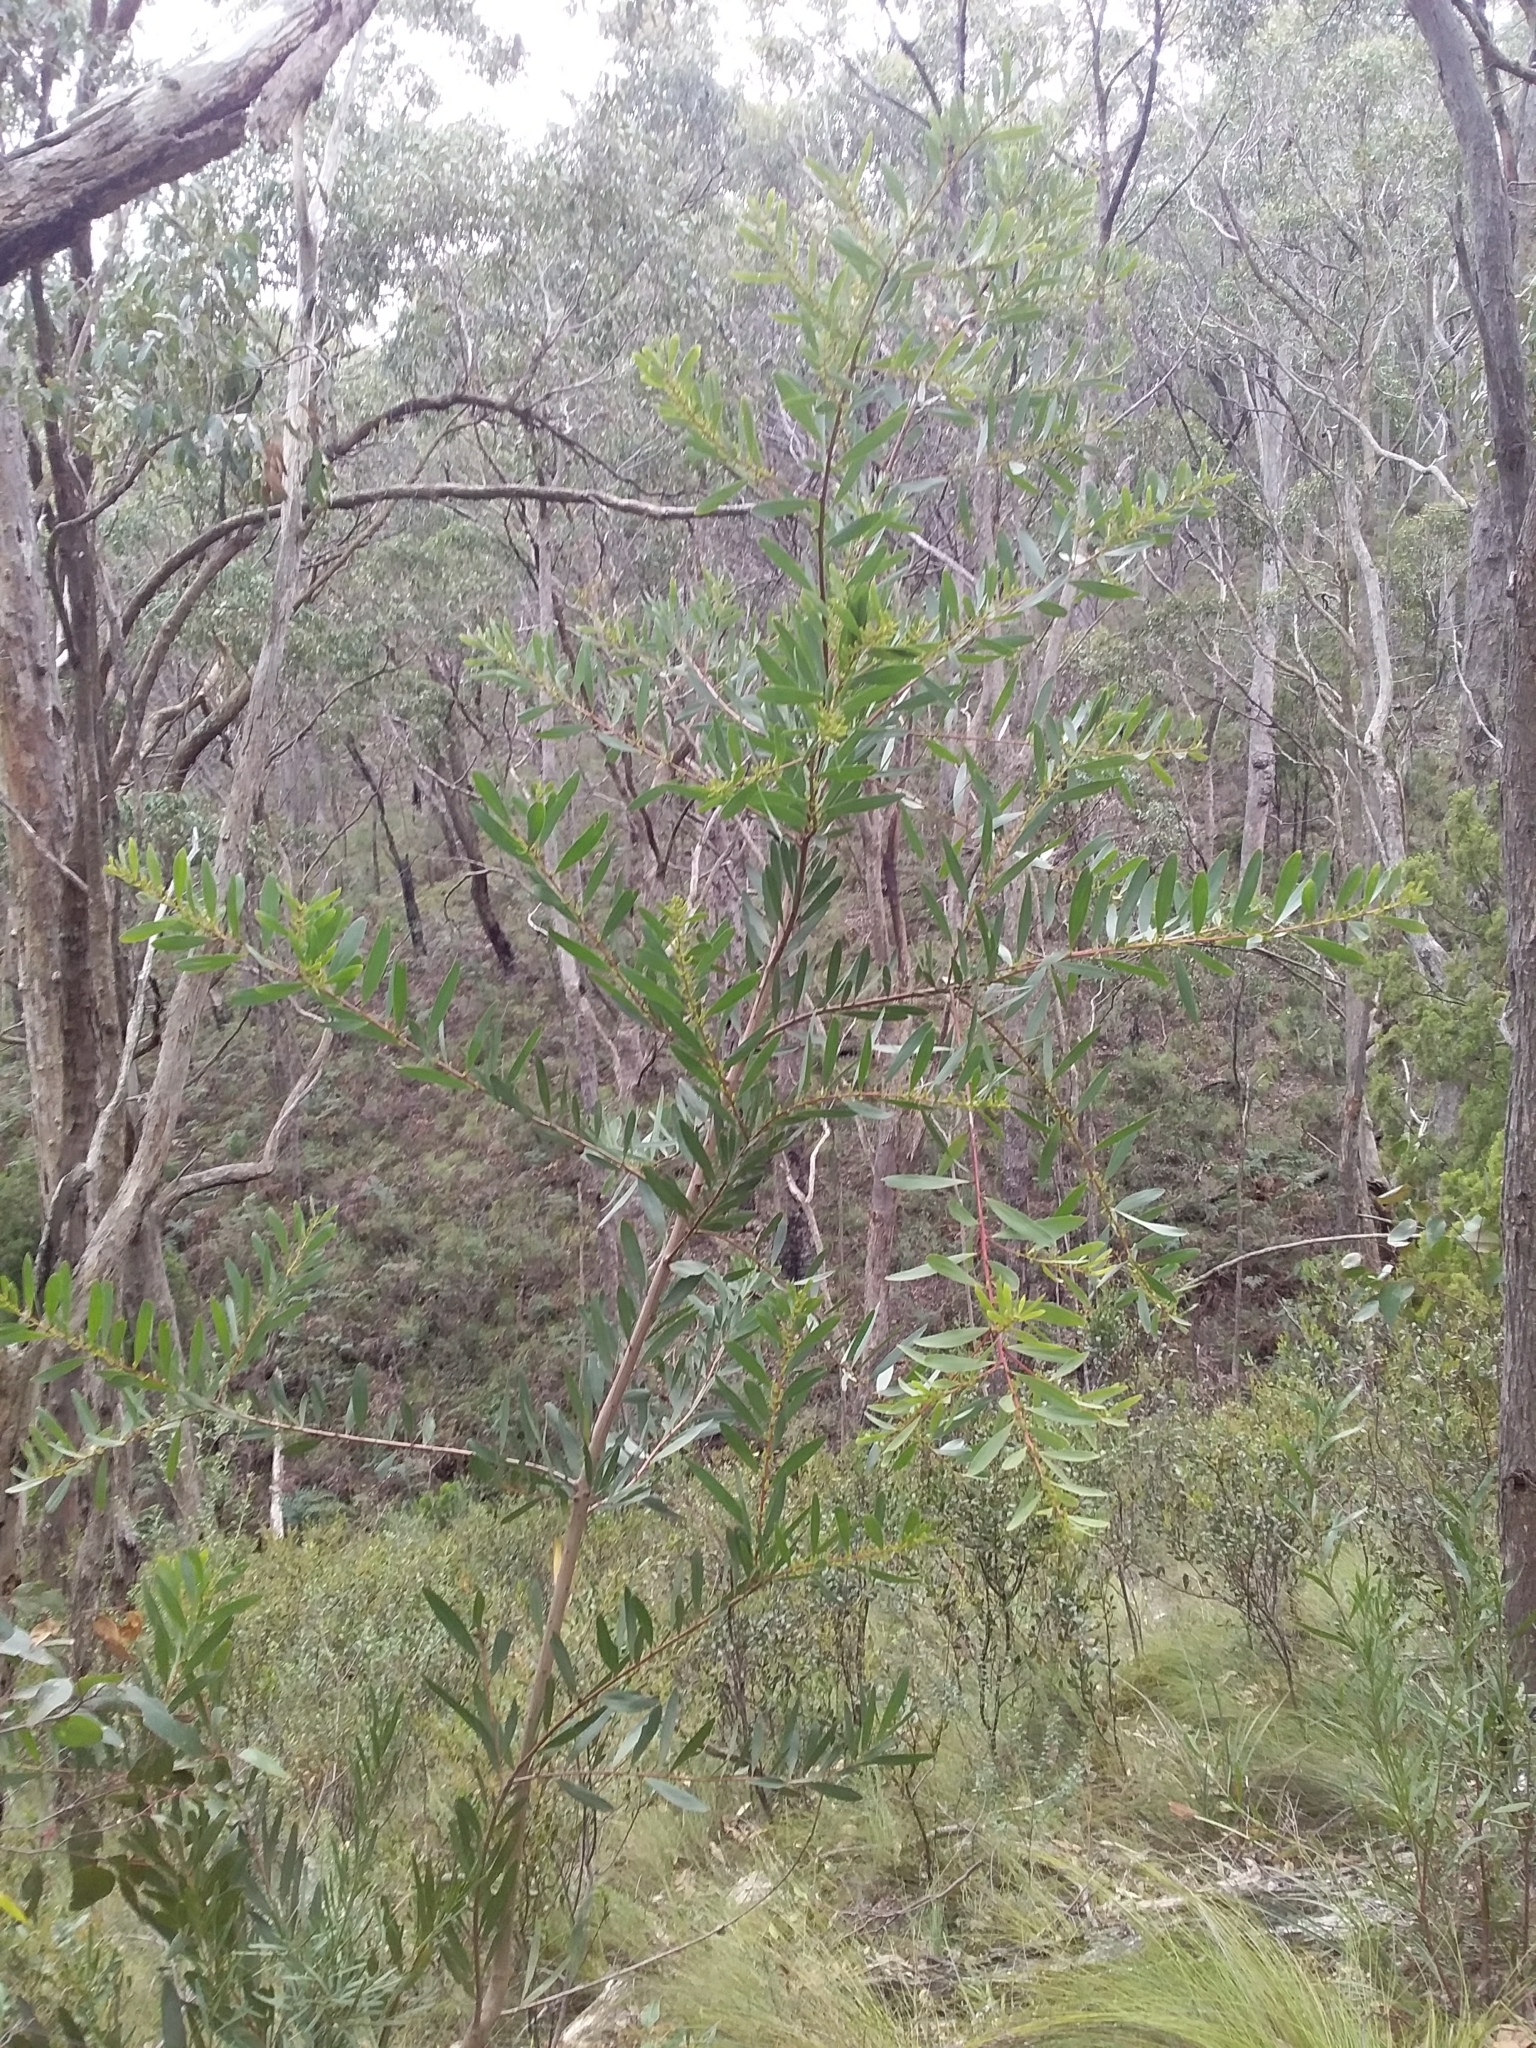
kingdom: Plantae
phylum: Tracheophyta
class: Magnoliopsida
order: Fabales
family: Fabaceae
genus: Acacia
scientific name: Acacia longifolia
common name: Sydney golden wattle
